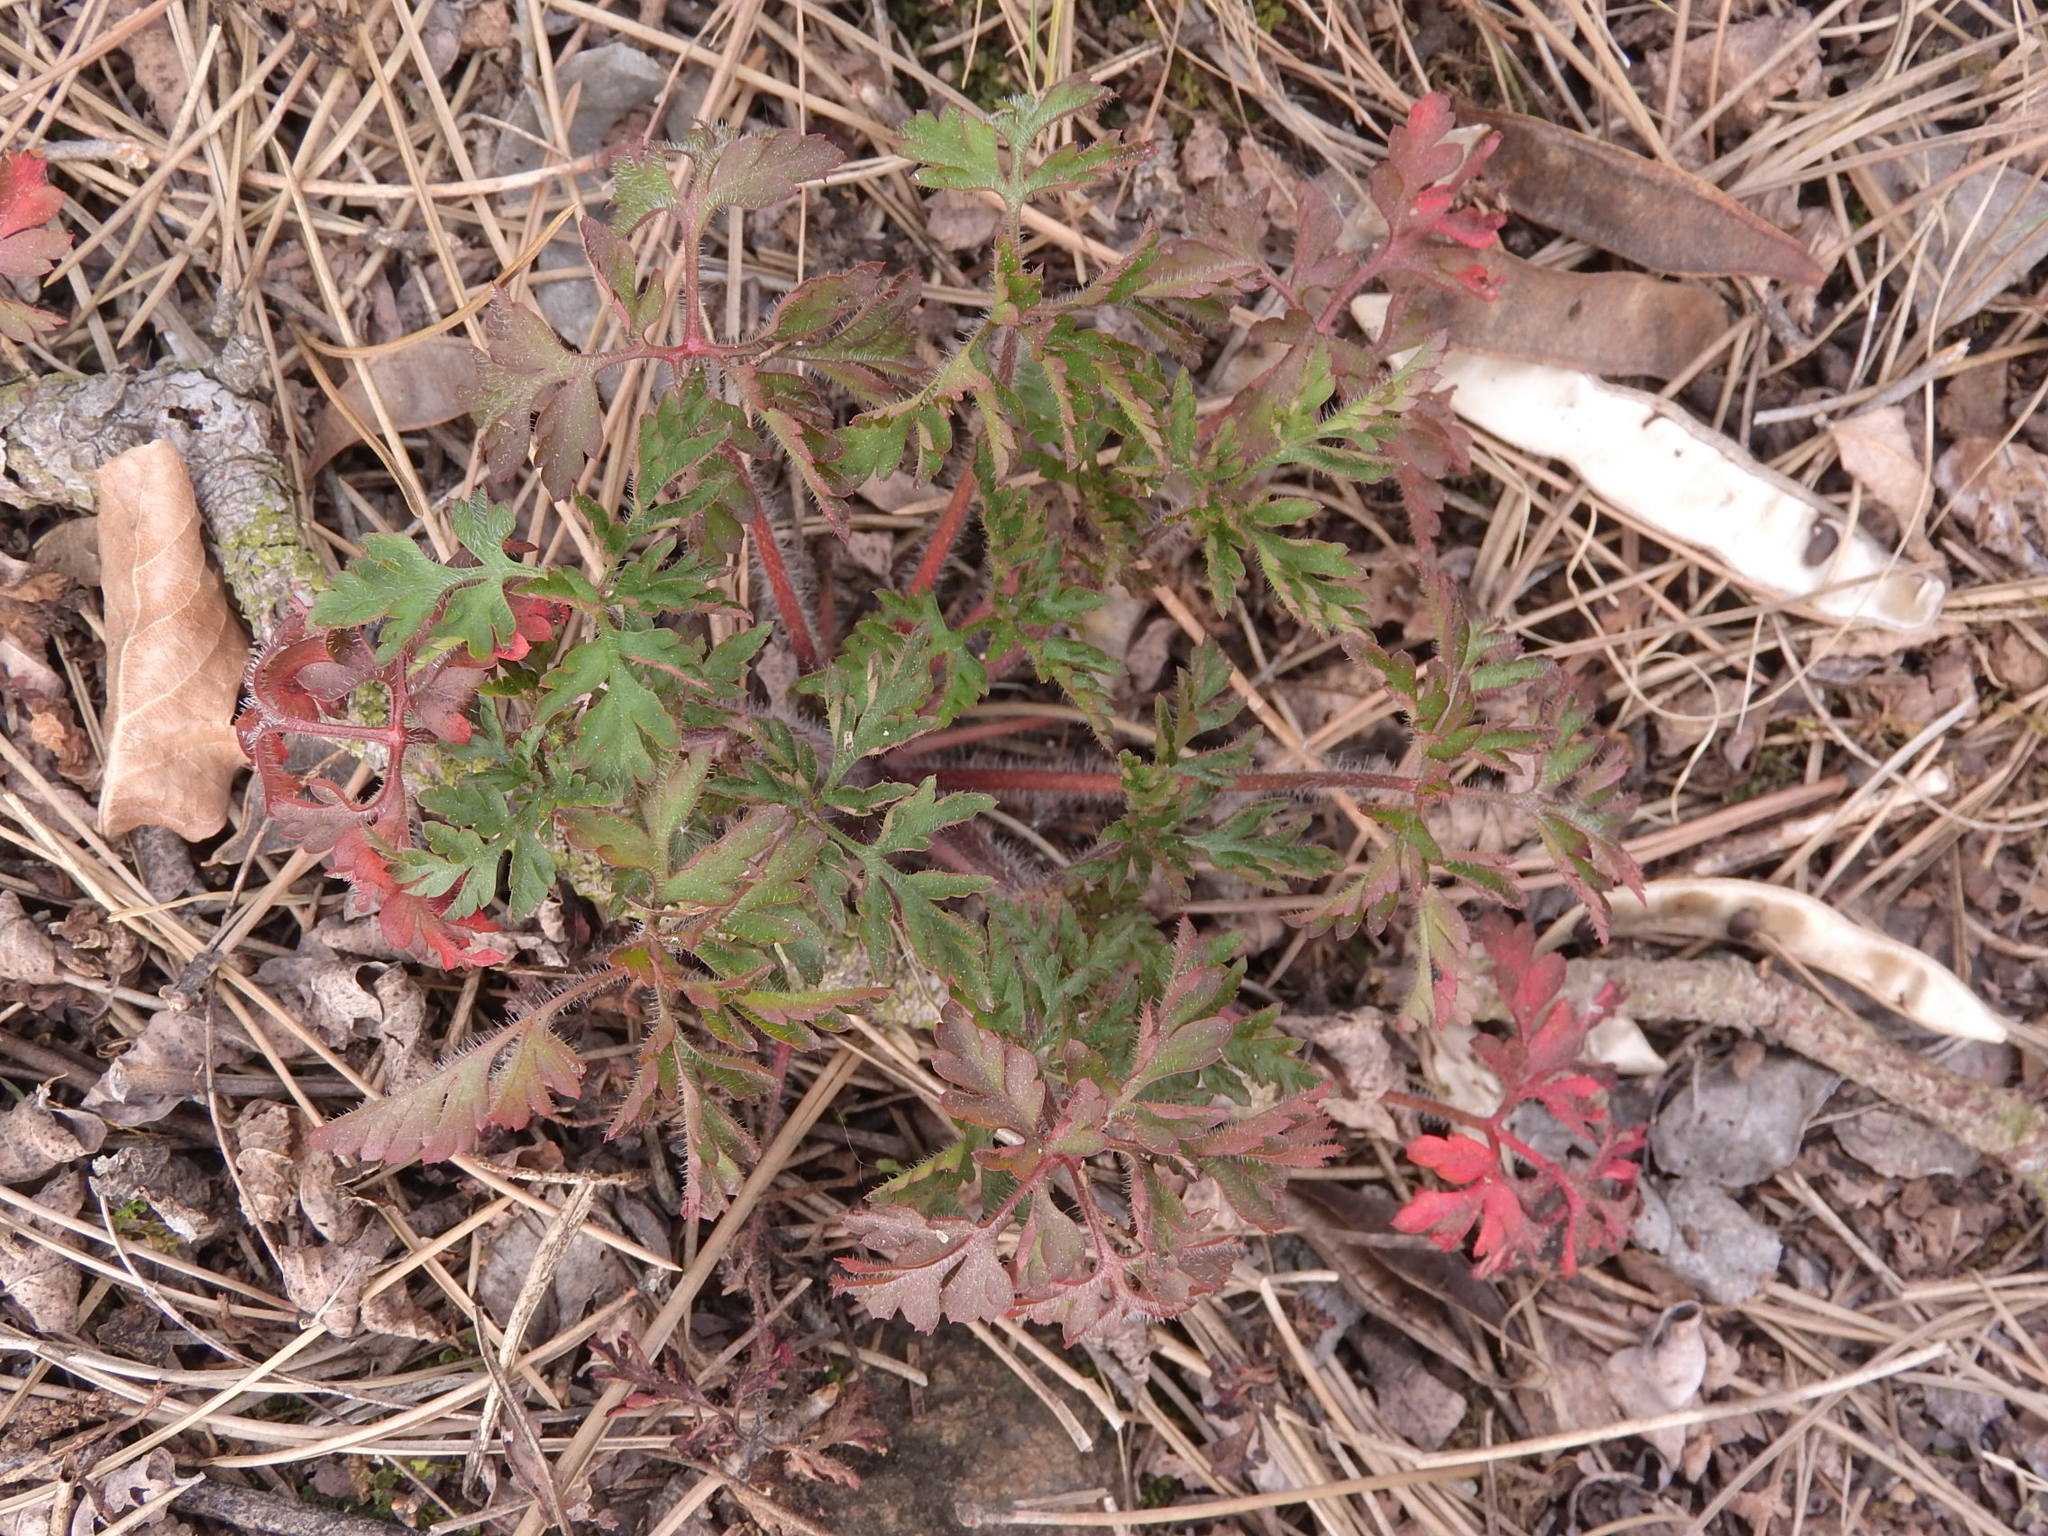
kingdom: Plantae
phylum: Tracheophyta
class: Magnoliopsida
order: Geraniales
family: Geraniaceae
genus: Geranium
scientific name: Geranium robertianum
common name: Herb-robert
